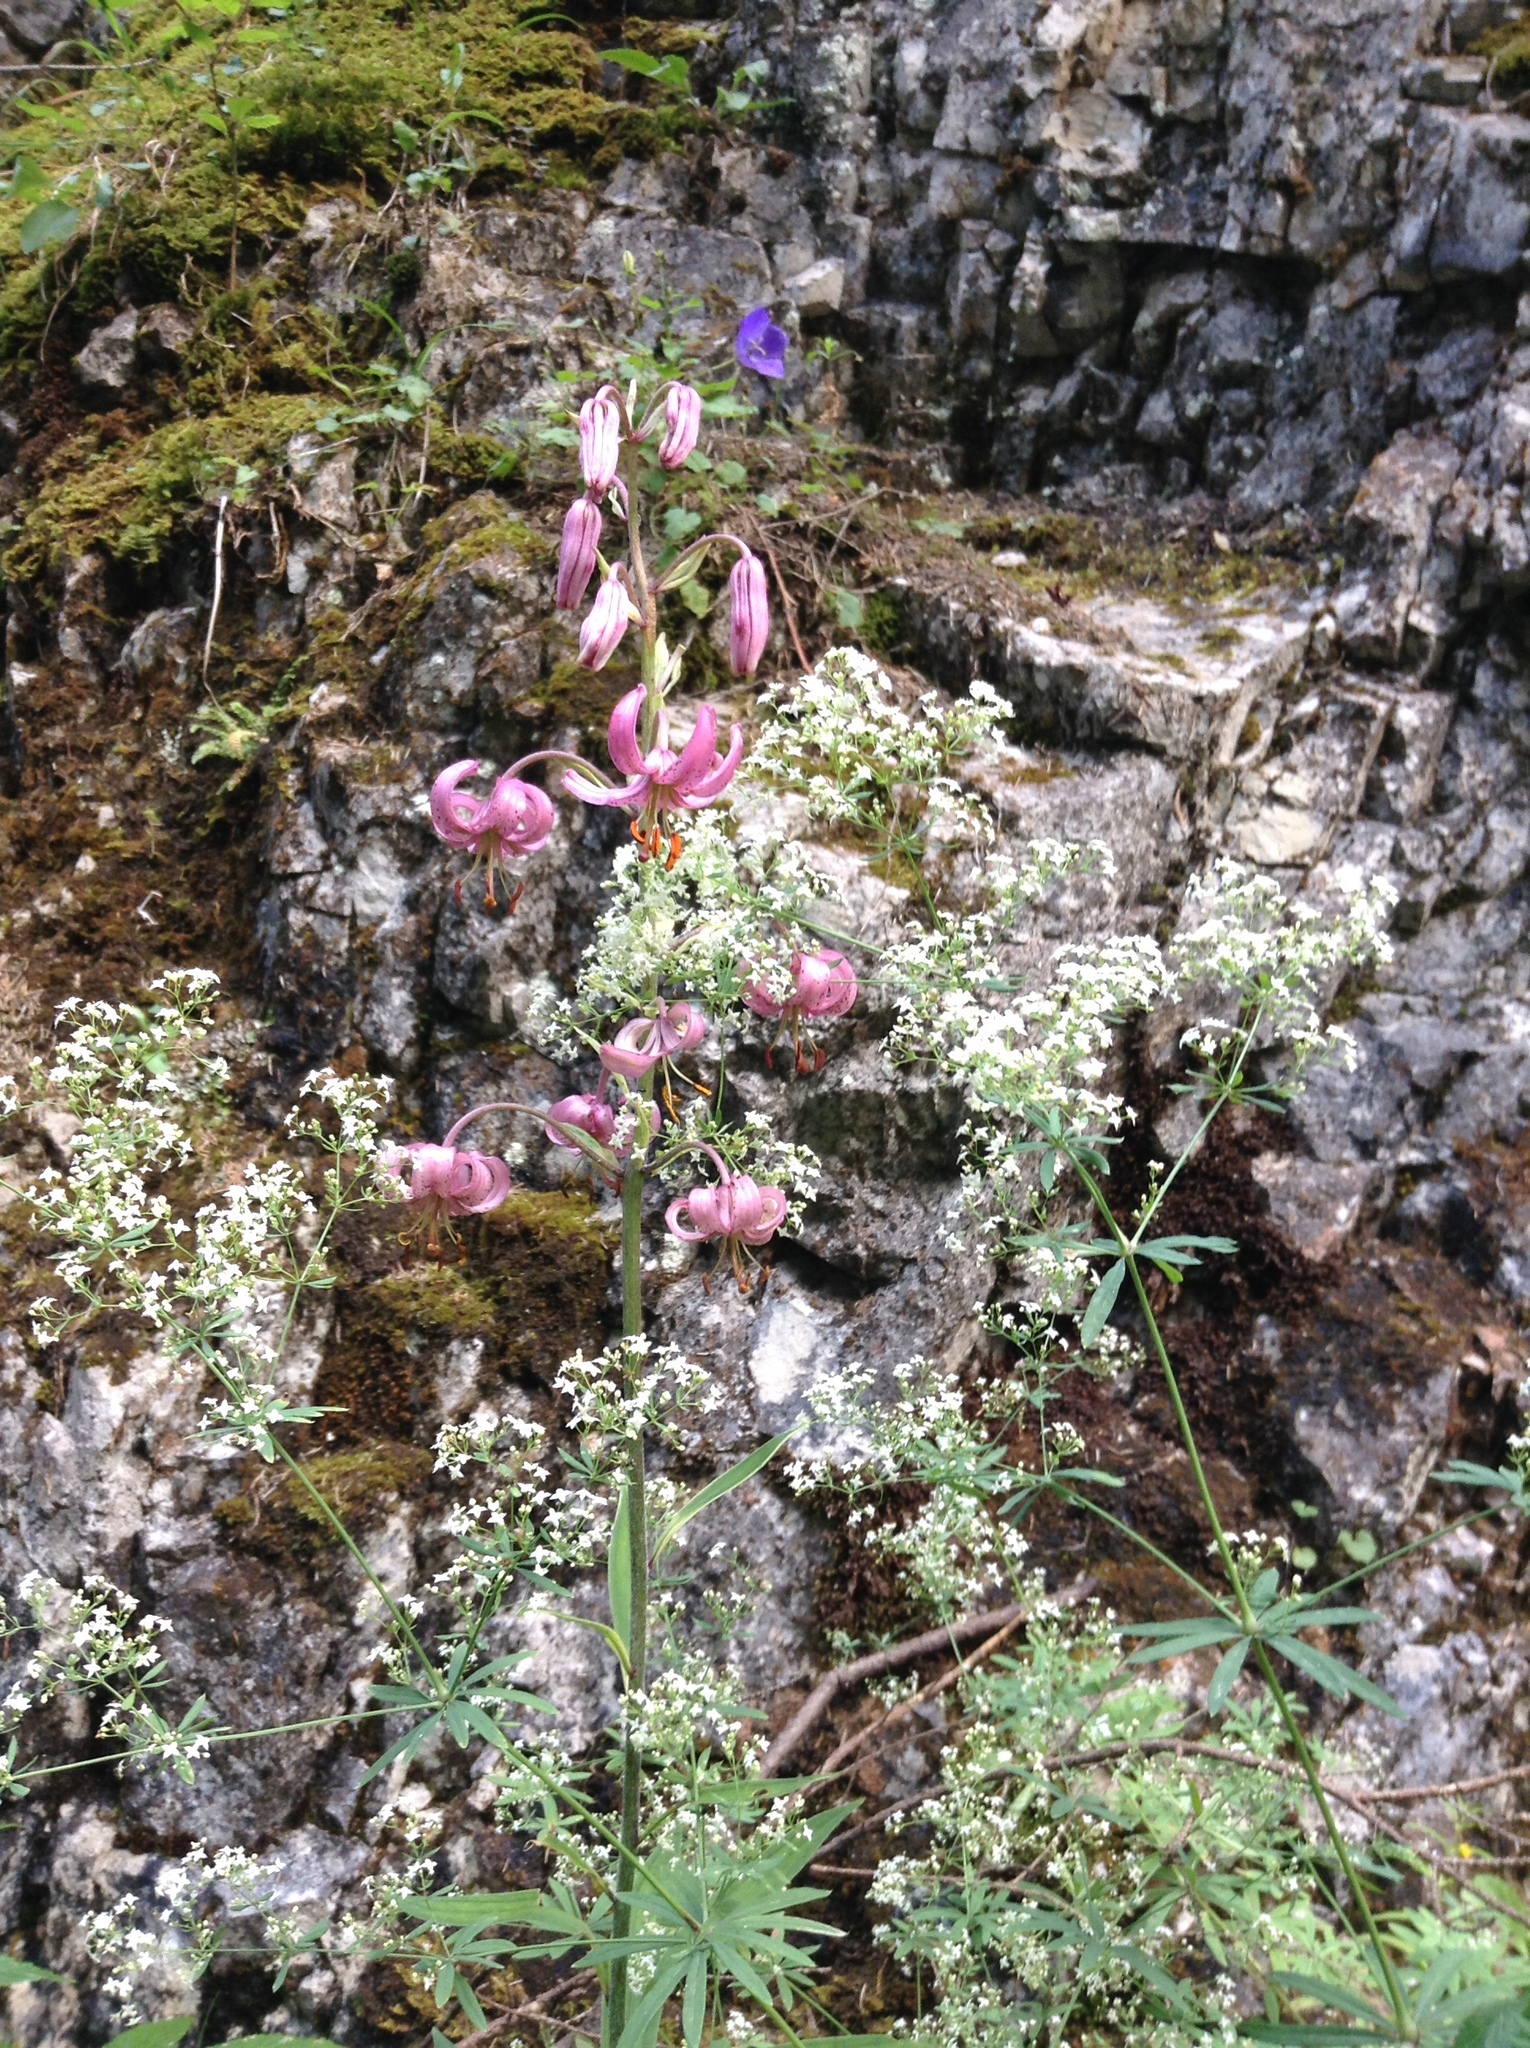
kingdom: Plantae
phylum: Tracheophyta
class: Liliopsida
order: Liliales
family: Liliaceae
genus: Lilium
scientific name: Lilium martagon
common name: Martagon lily
